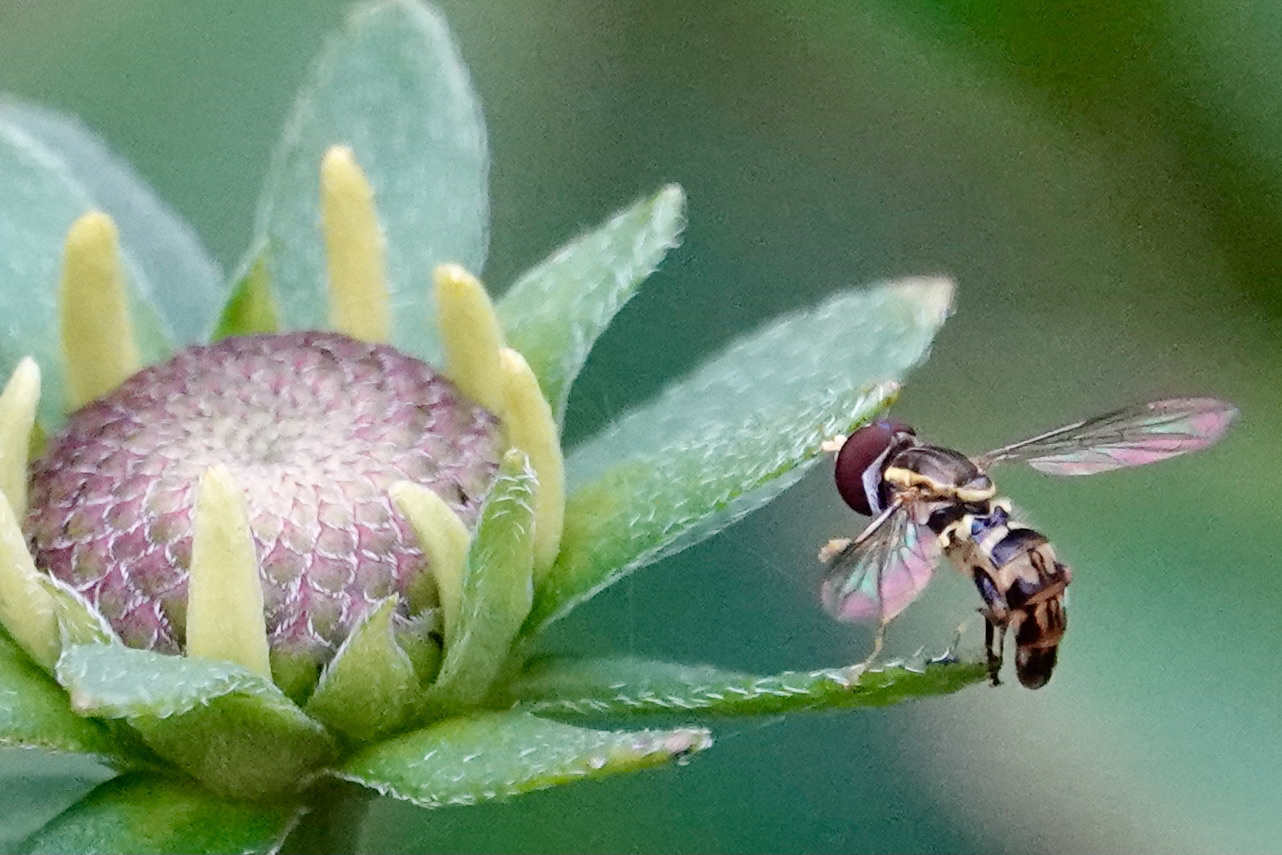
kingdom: Animalia
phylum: Arthropoda
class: Insecta
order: Diptera
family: Syrphidae
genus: Toxomerus
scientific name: Toxomerus geminatus
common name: Eastern calligrapher
